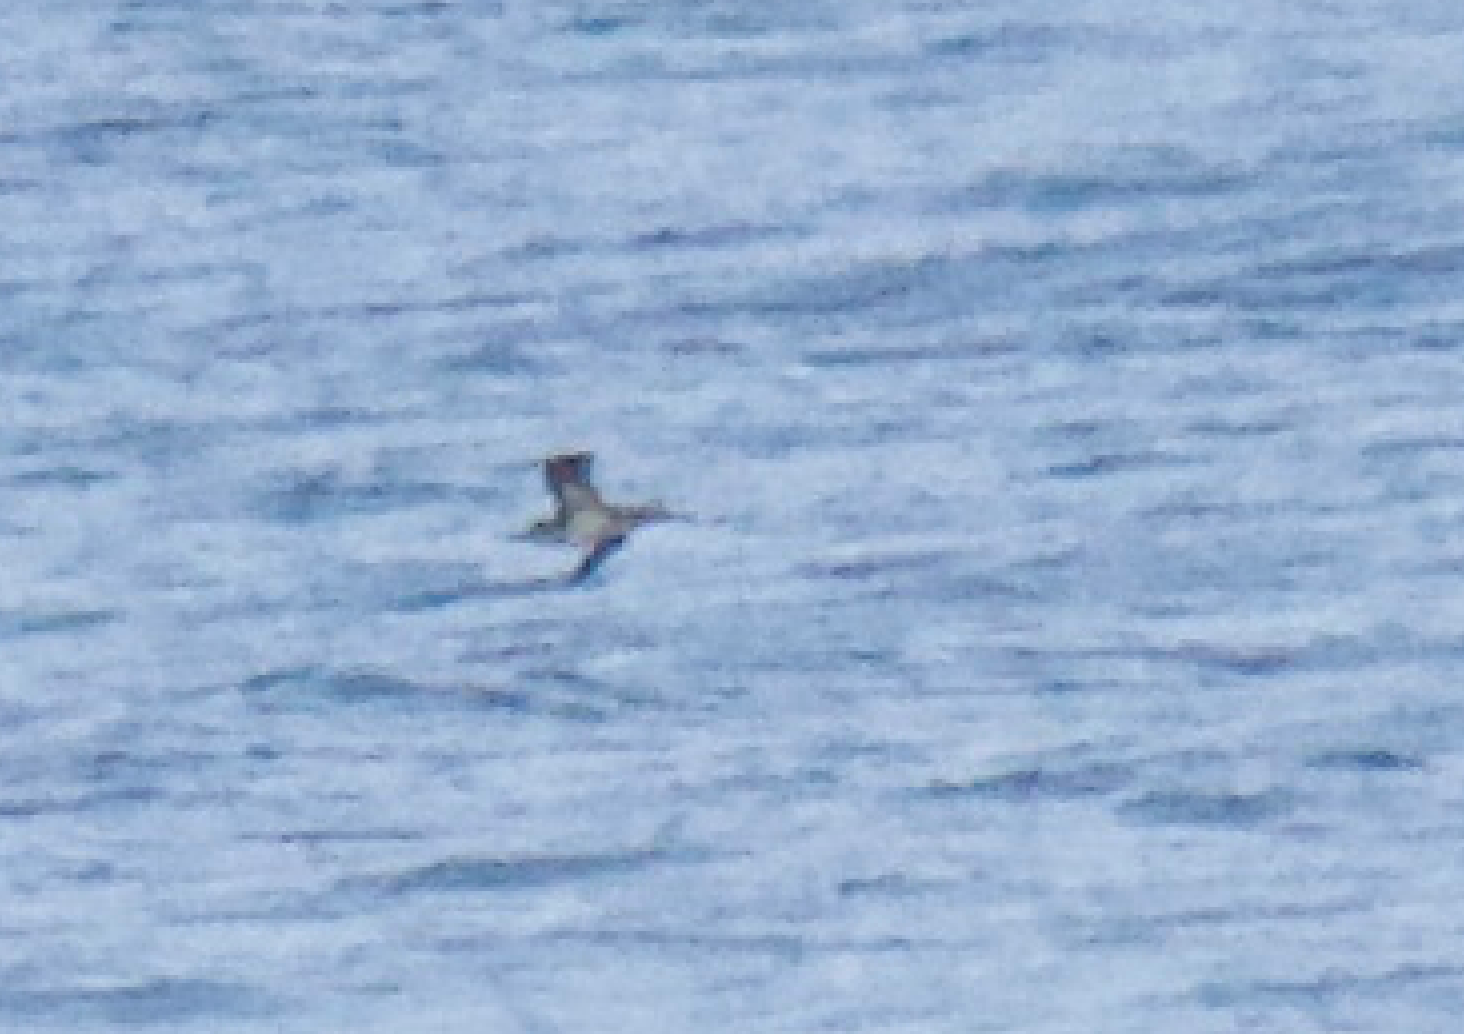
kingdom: Animalia
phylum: Chordata
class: Aves
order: Suliformes
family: Sulidae
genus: Morus
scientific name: Morus bassanus
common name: Northern gannet
